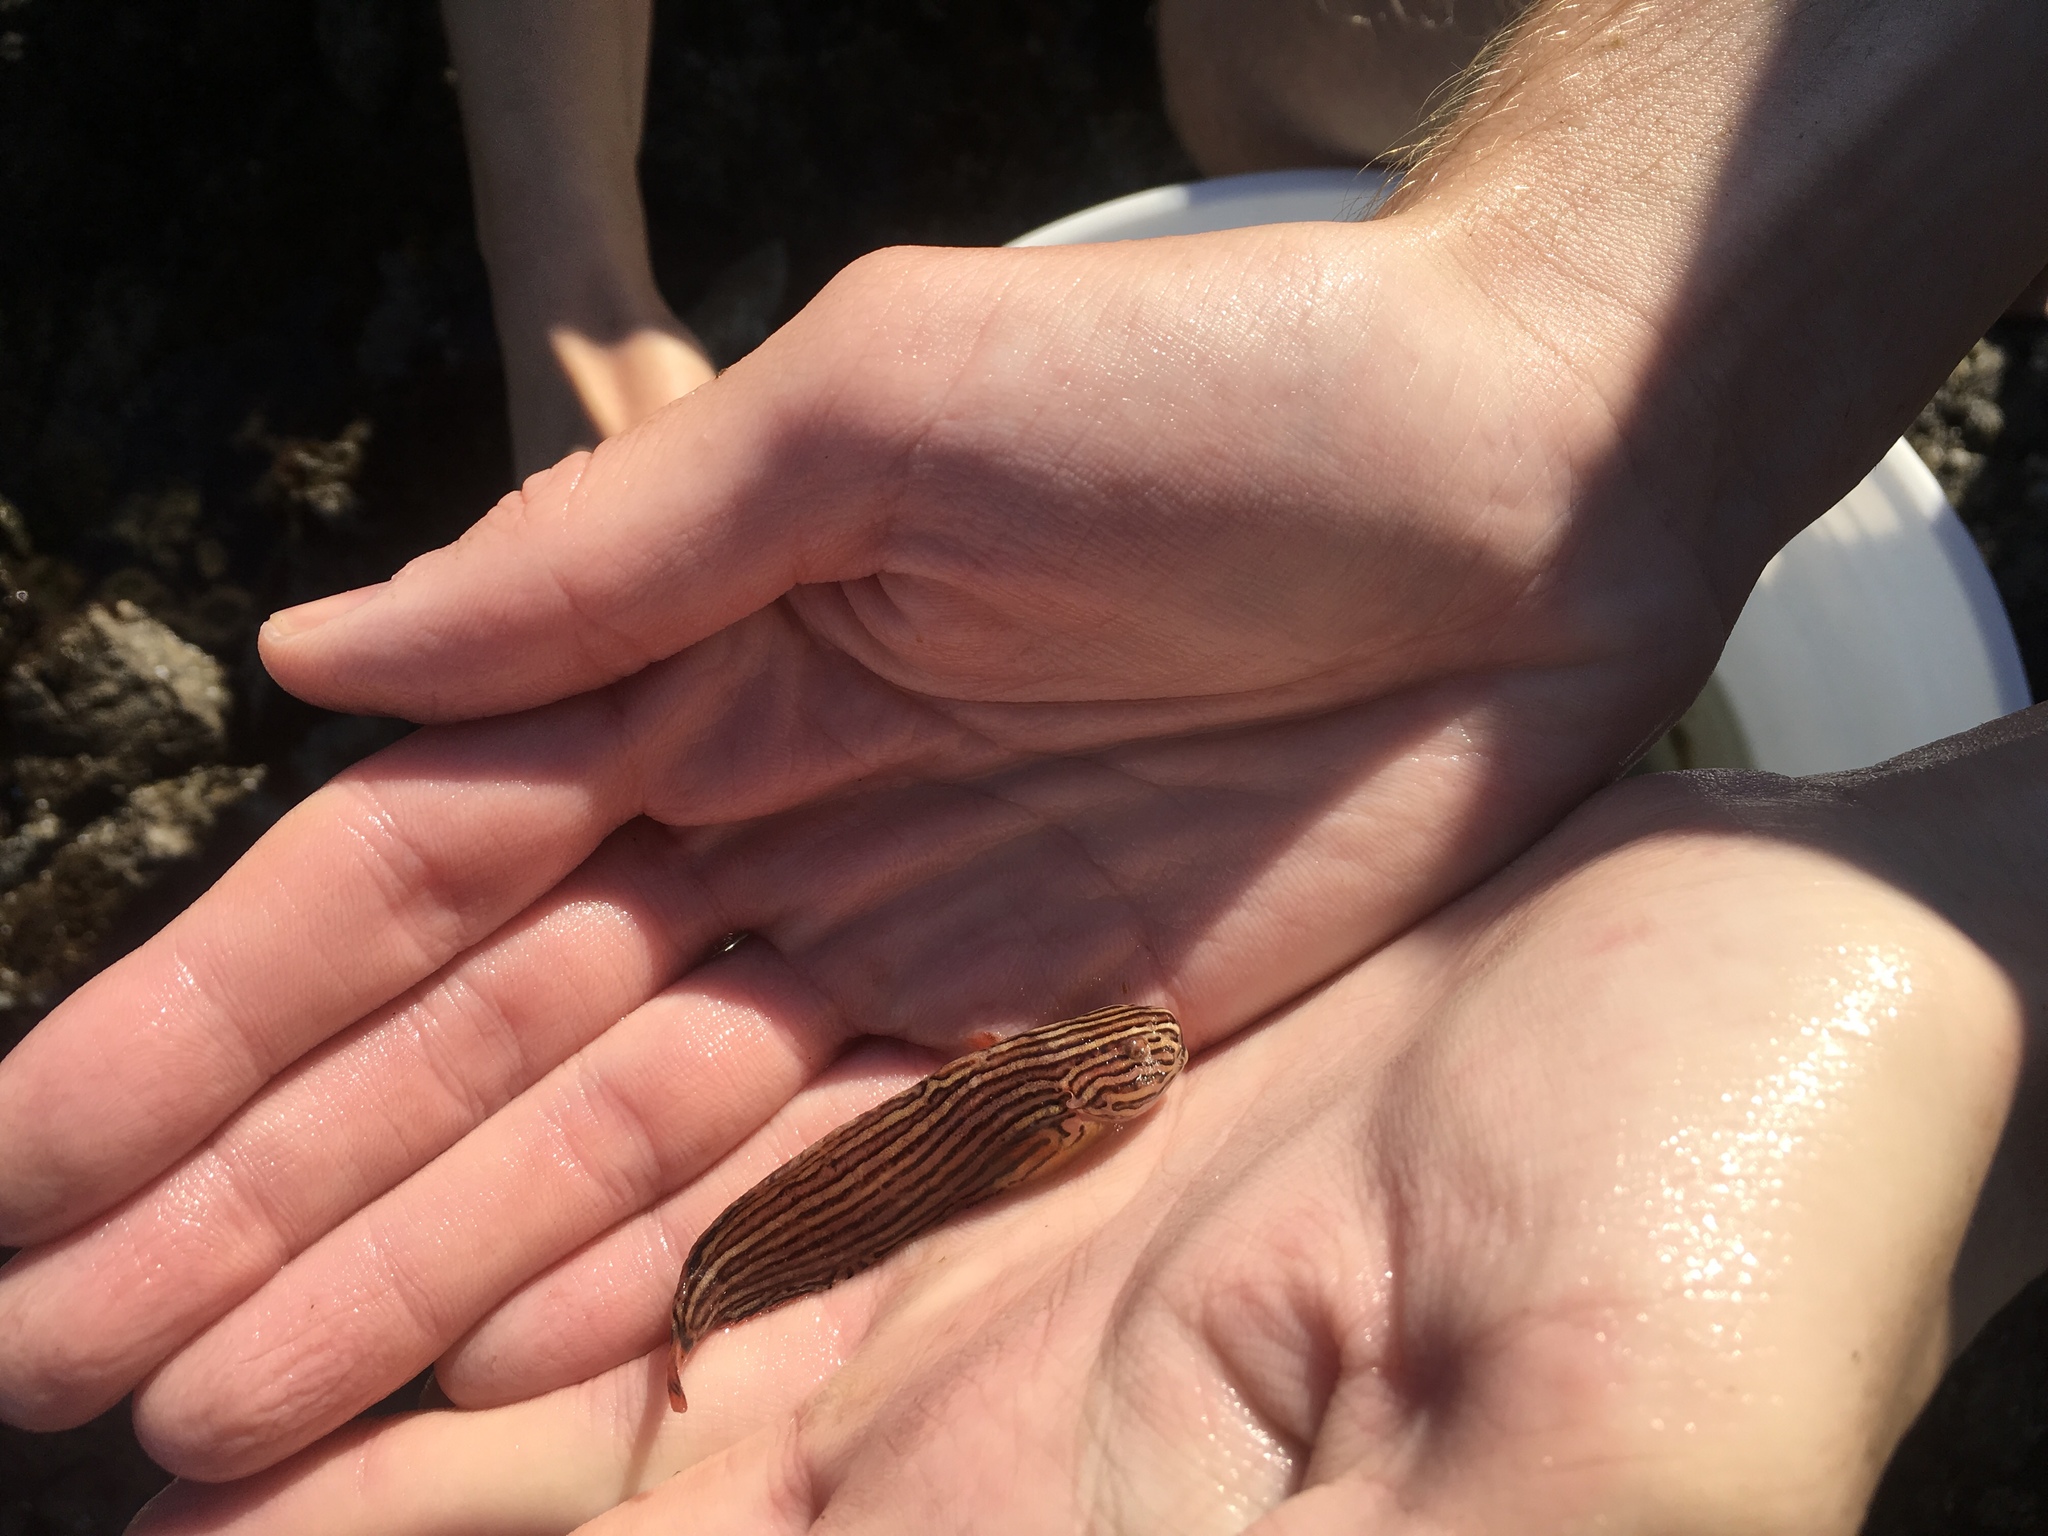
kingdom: Animalia
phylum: Chordata
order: Scorpaeniformes
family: Liparidae
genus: Liparis
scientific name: Liparis dennyi
